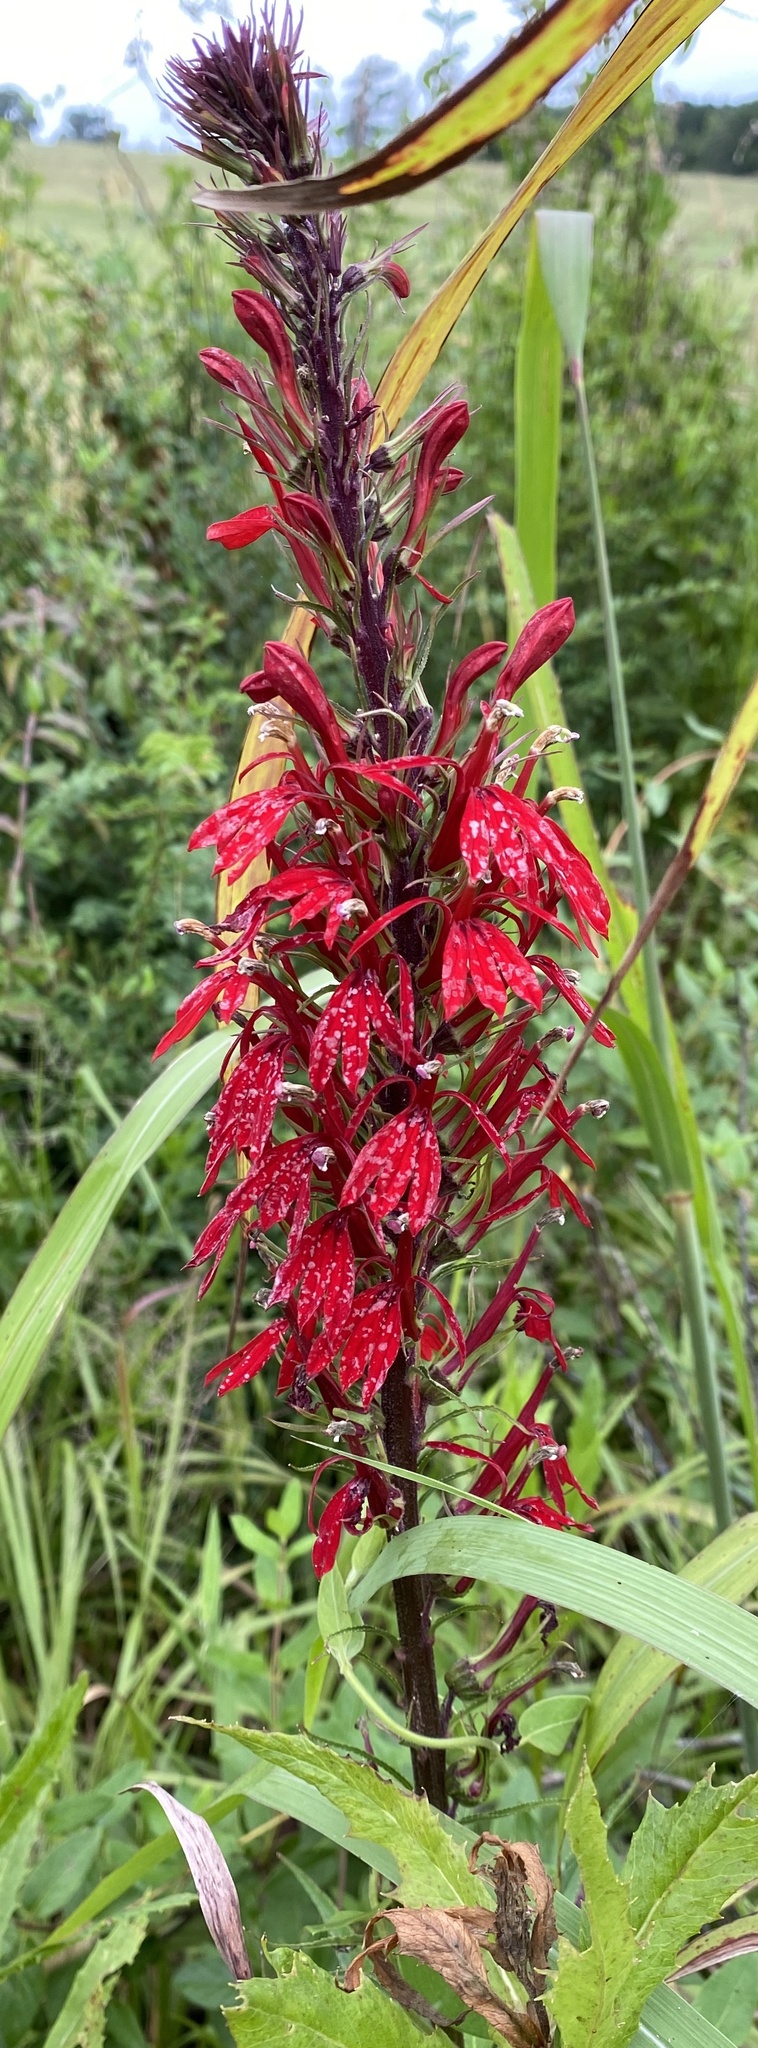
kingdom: Plantae
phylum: Tracheophyta
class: Magnoliopsida
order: Asterales
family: Campanulaceae
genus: Lobelia
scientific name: Lobelia cardinalis
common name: Cardinal flower
